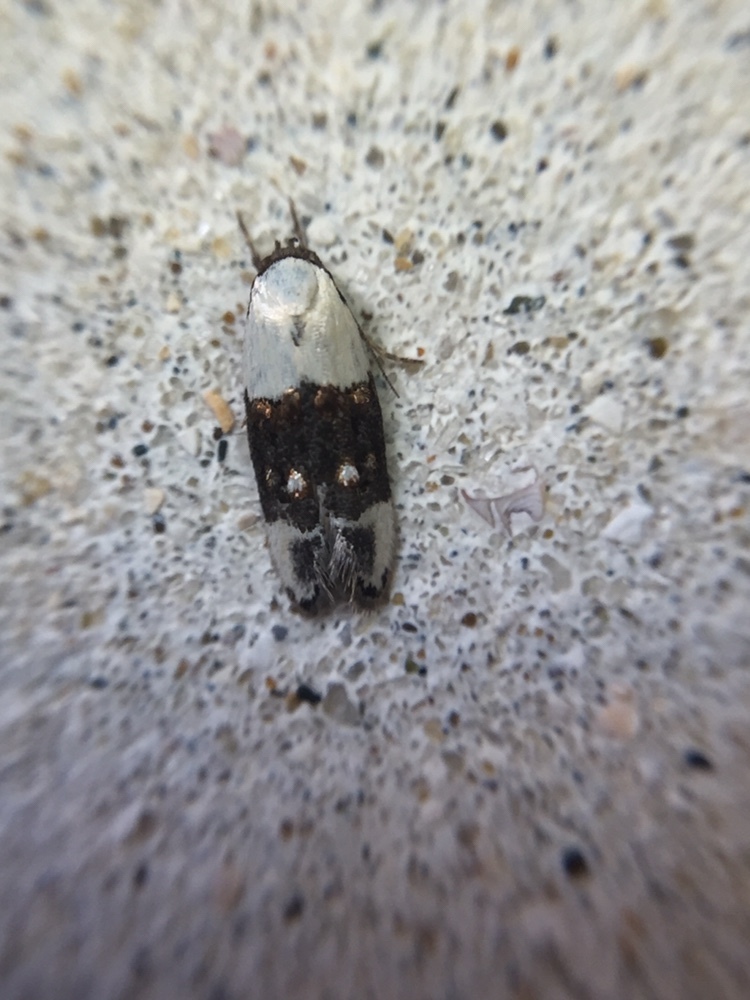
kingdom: Animalia
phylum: Arthropoda
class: Insecta
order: Lepidoptera
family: Oecophoridae
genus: Trachypepla
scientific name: Trachypepla amphileuca
